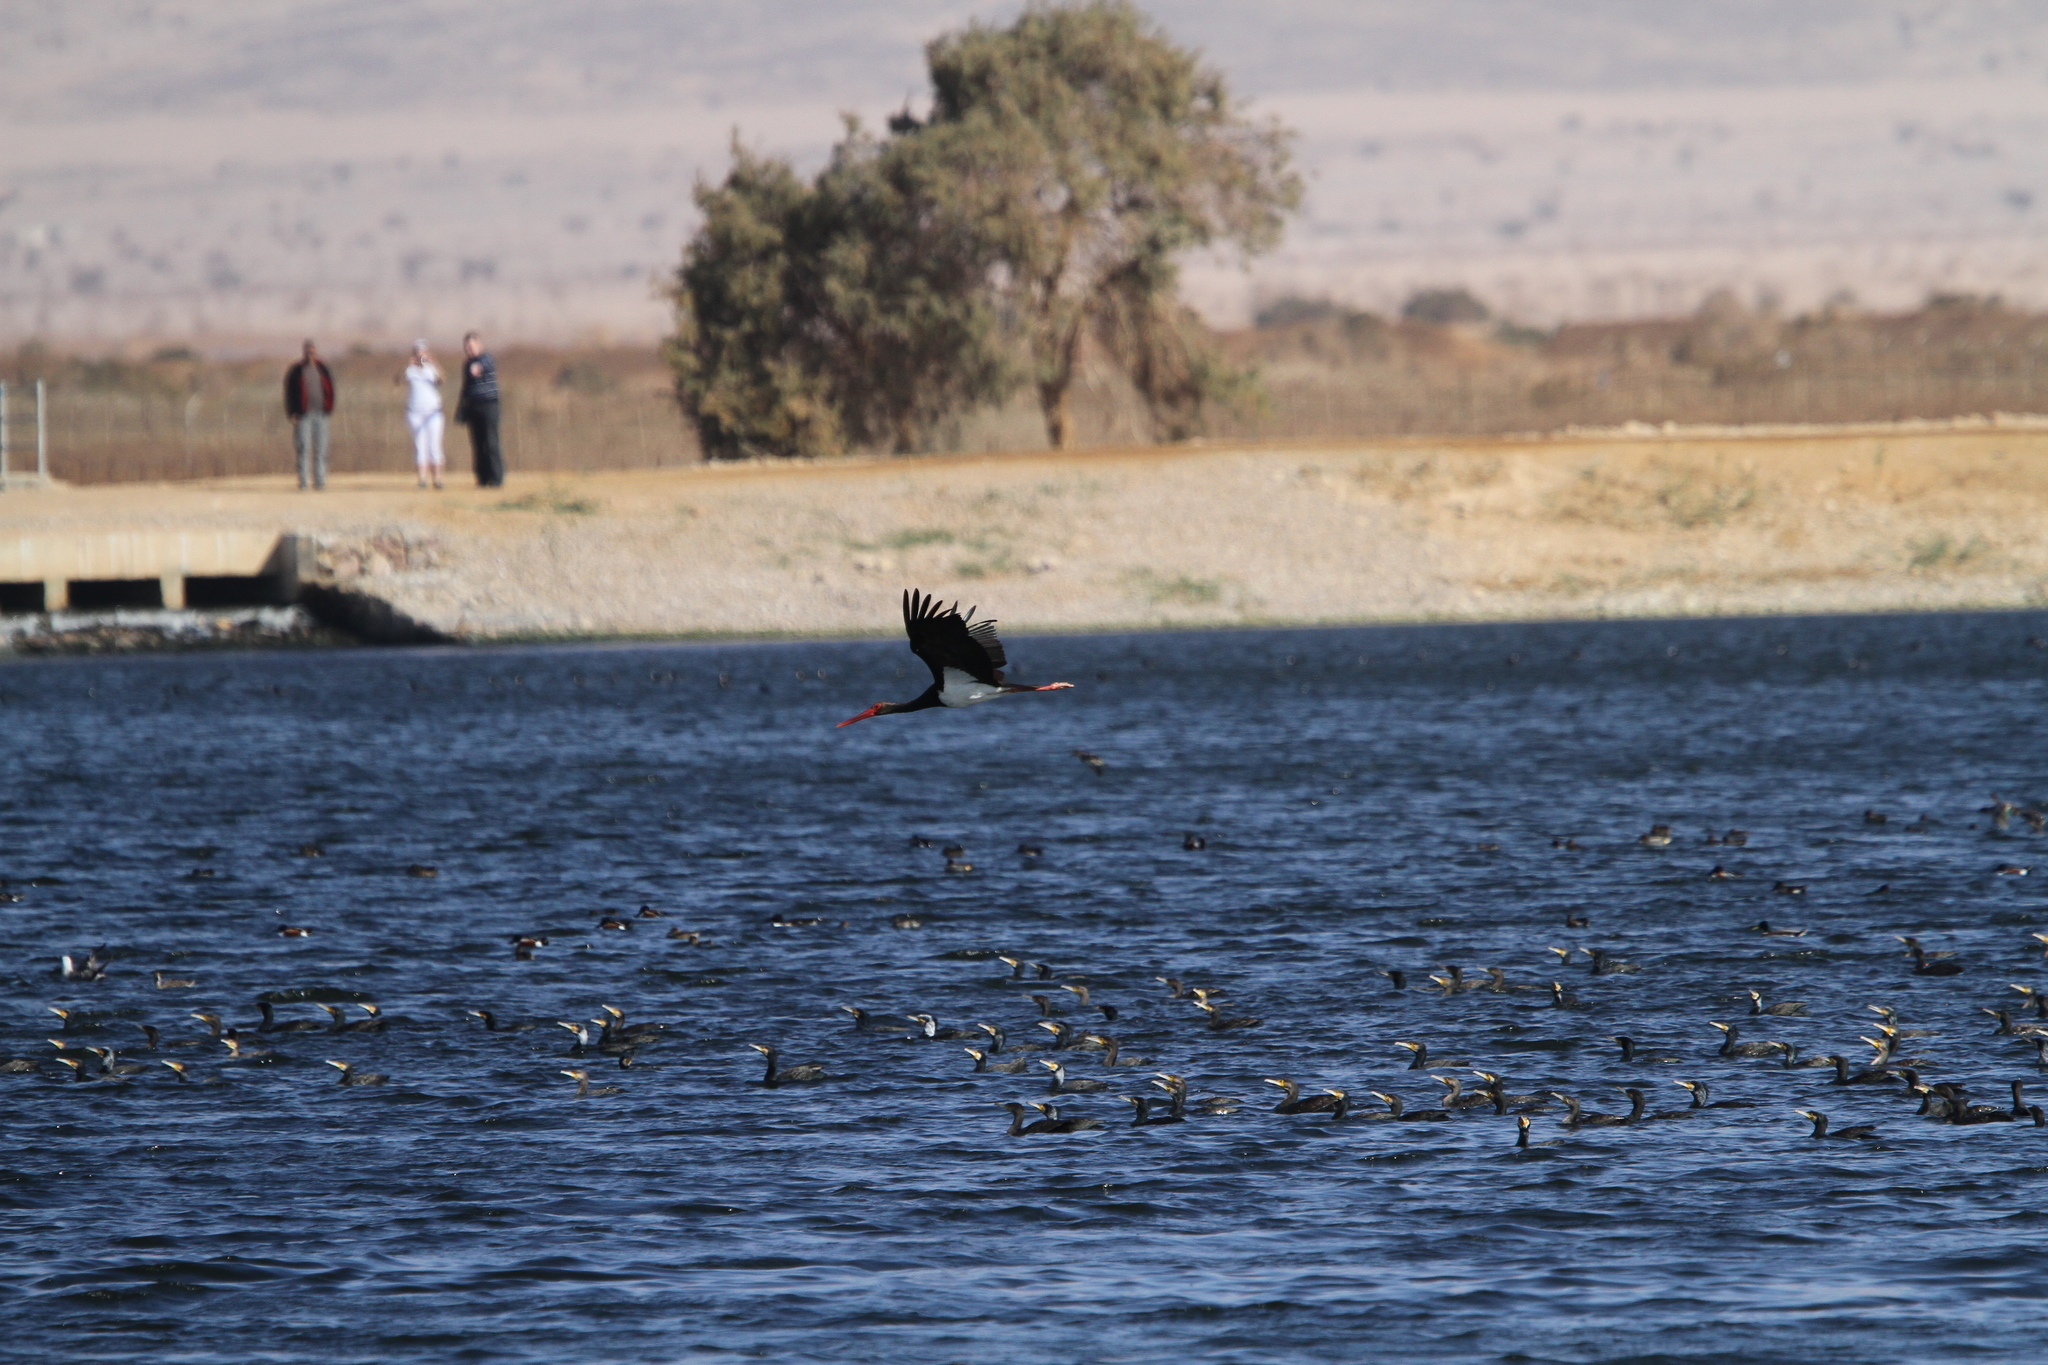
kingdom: Animalia
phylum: Chordata
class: Aves
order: Ciconiiformes
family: Ciconiidae
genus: Ciconia
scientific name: Ciconia nigra
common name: Black stork
